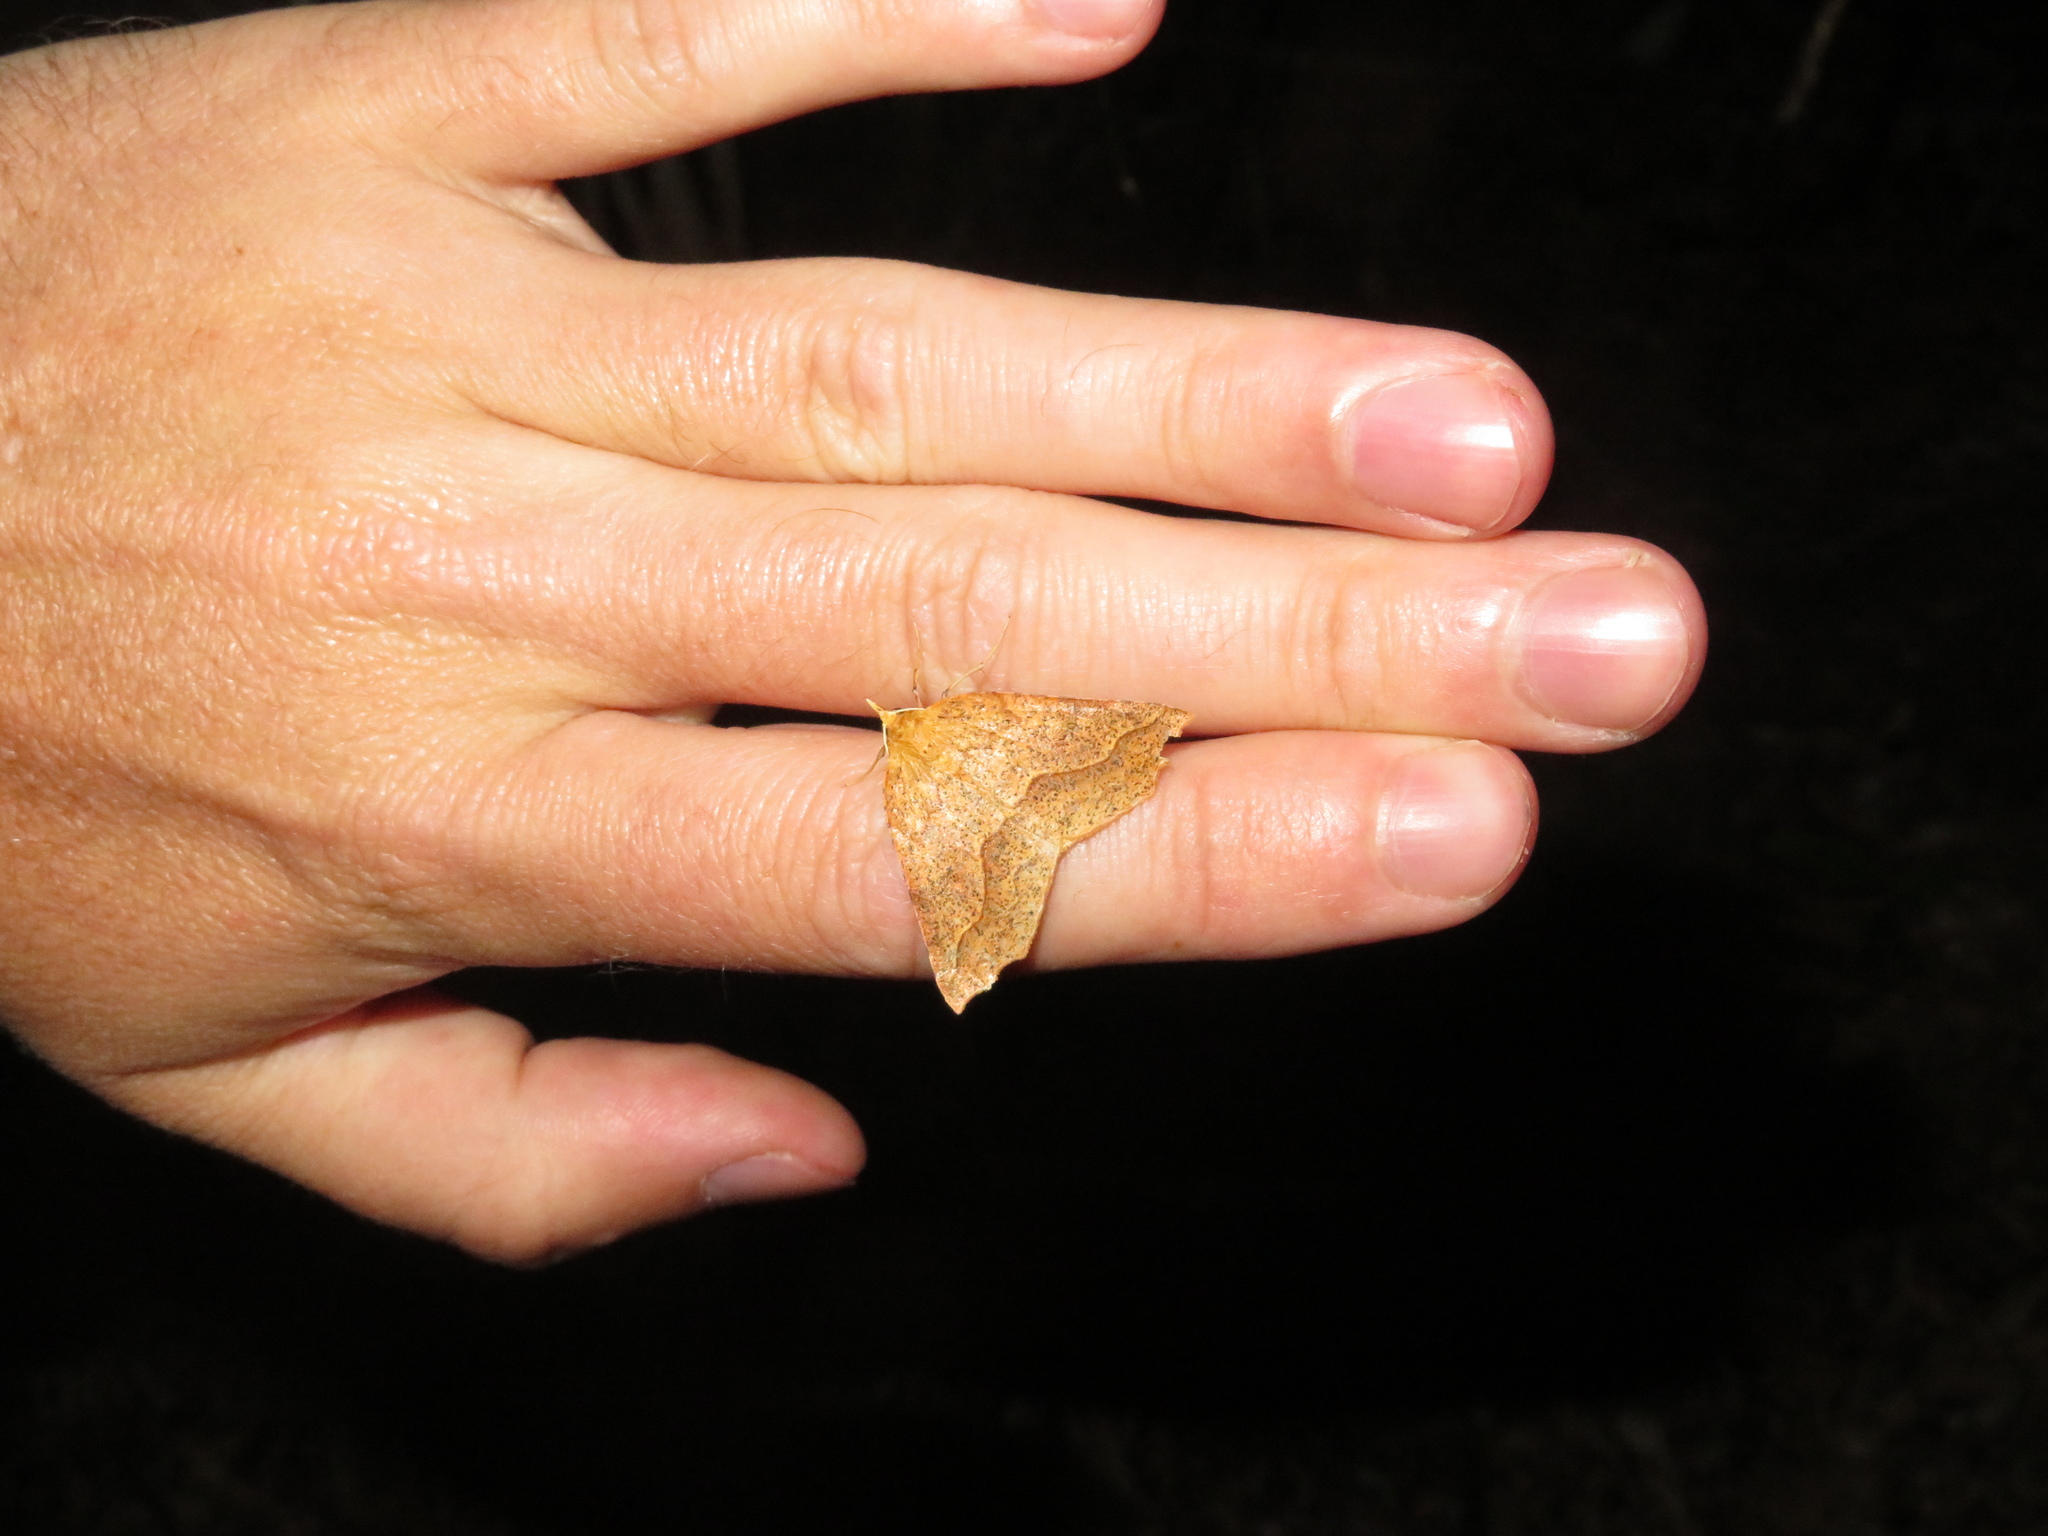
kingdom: Animalia
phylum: Arthropoda
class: Insecta
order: Lepidoptera
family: Geometridae
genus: Ischalis
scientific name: Ischalis variabilis
